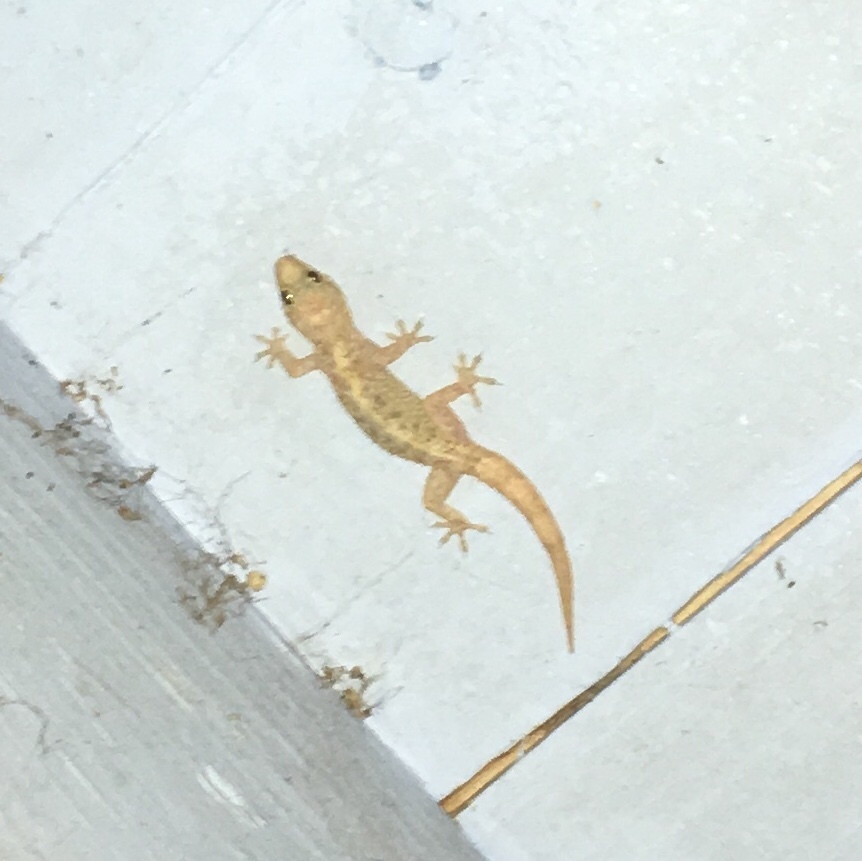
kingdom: Animalia
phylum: Chordata
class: Squamata
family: Gekkonidae
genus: Hemidactylus
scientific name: Hemidactylus turcicus
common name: Turkish gecko
